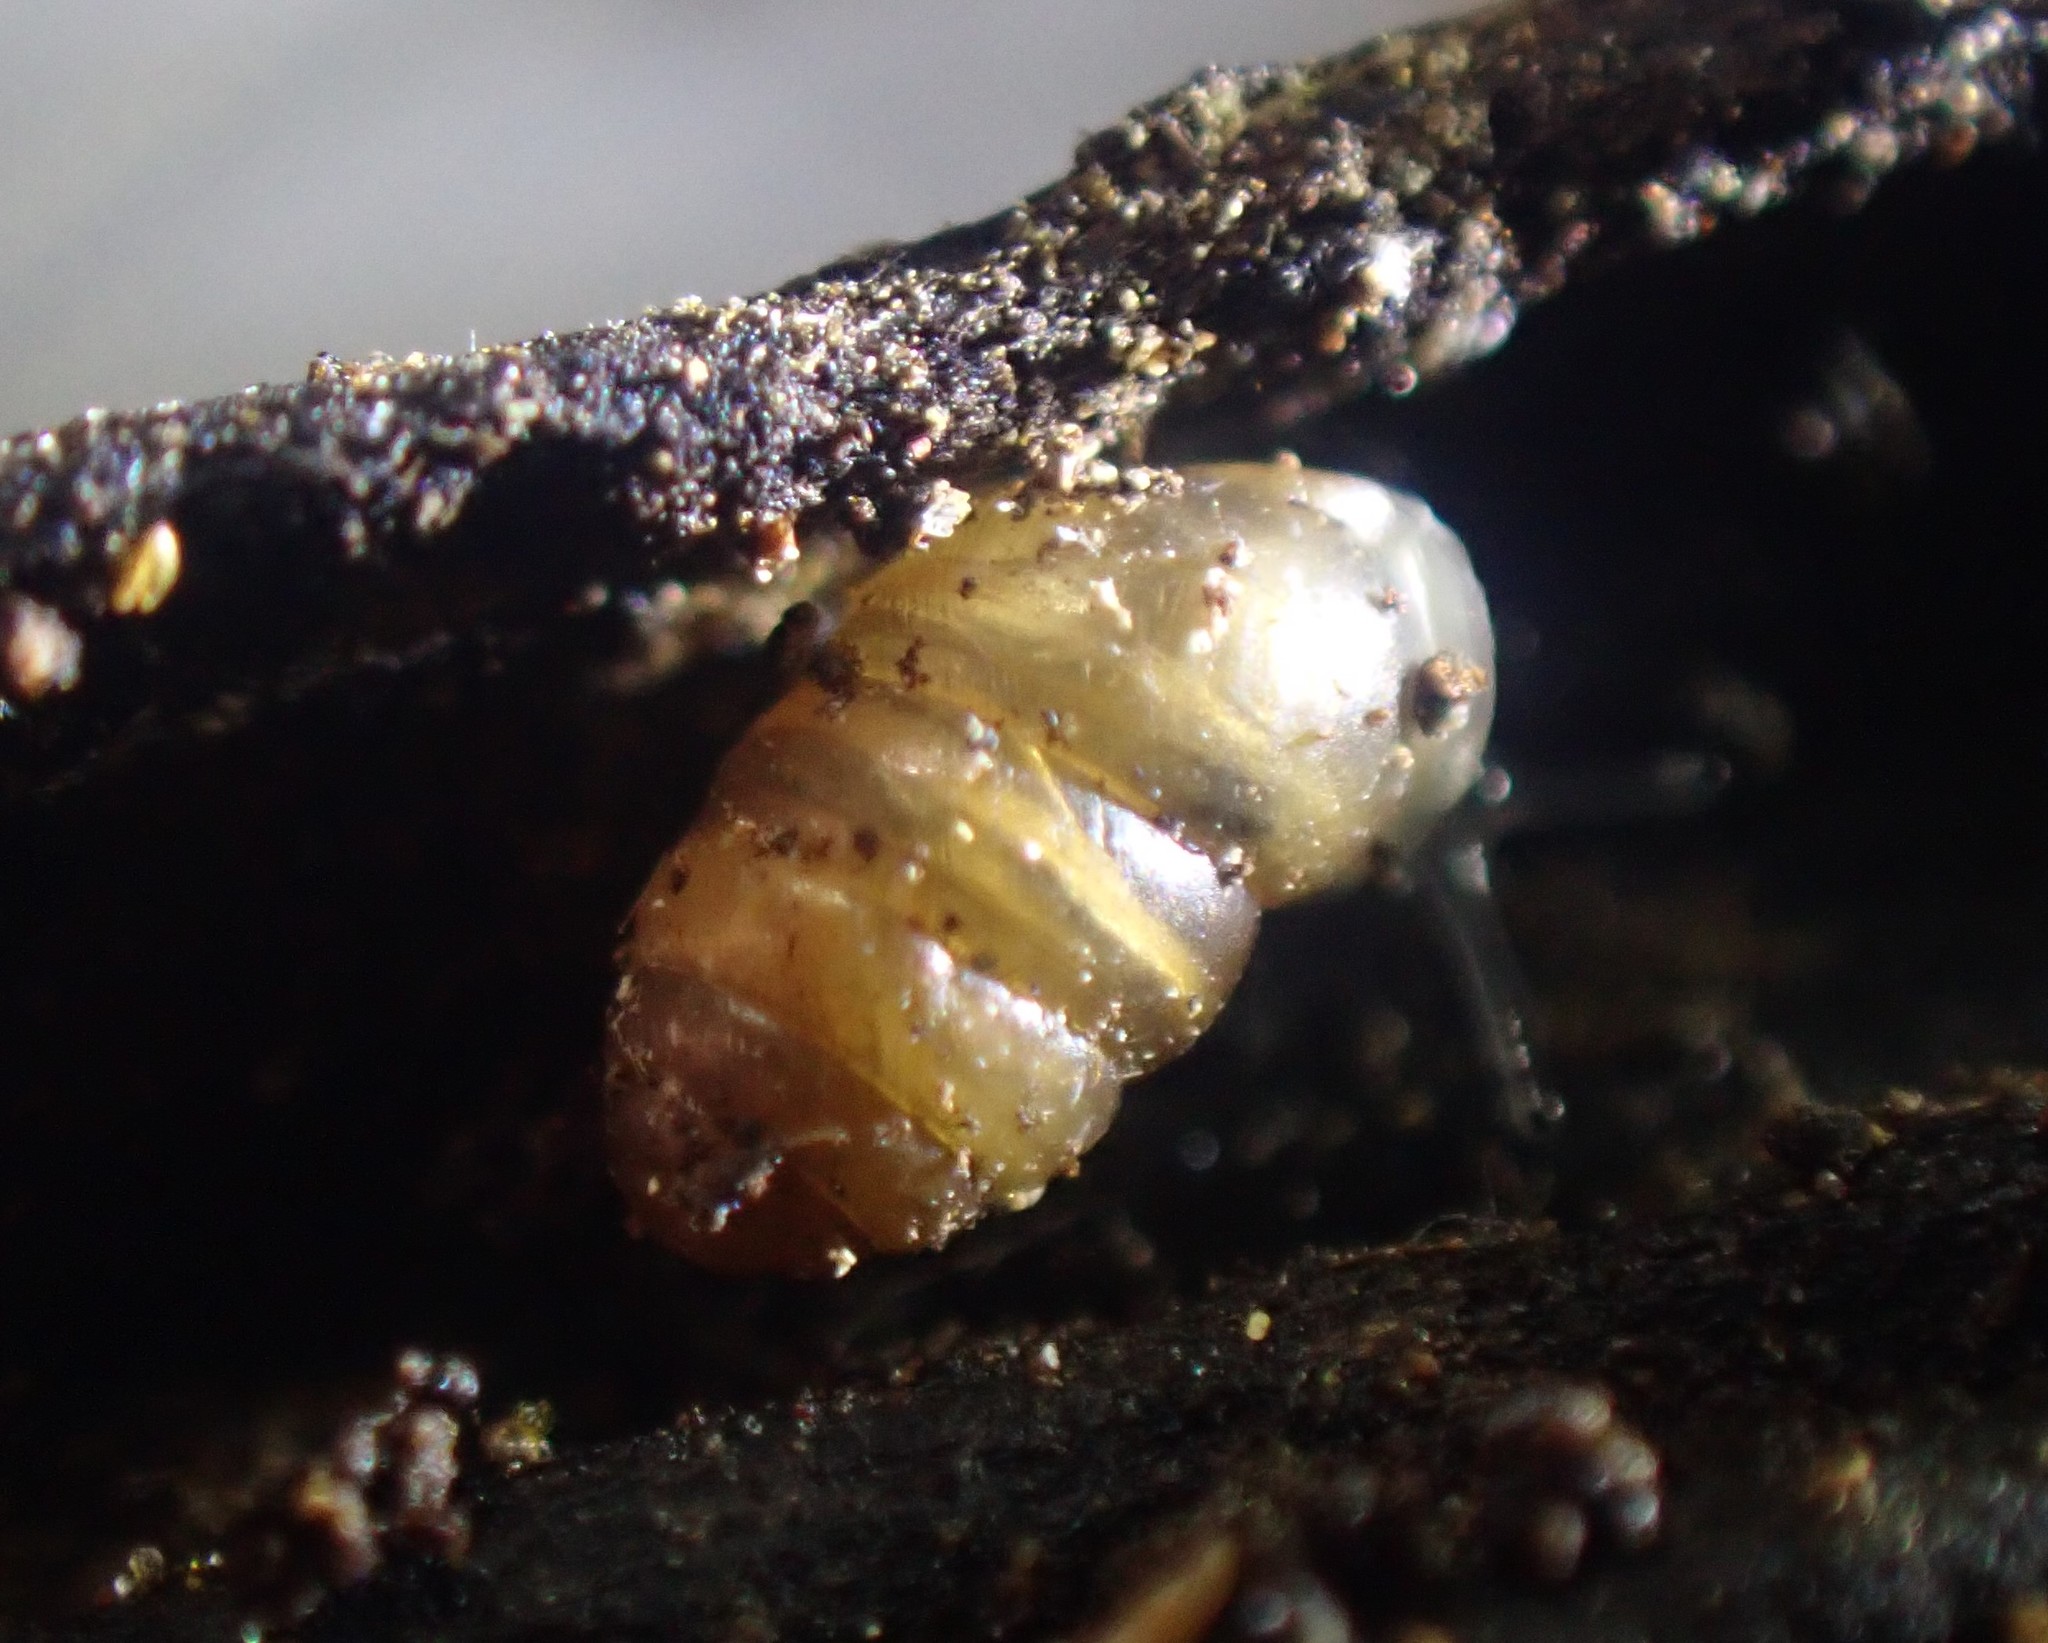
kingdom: Animalia
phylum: Mollusca
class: Gastropoda
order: Stylommatophora
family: Lauriidae
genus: Lauria
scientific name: Lauria cylindracea
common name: Common chrysalis snail
